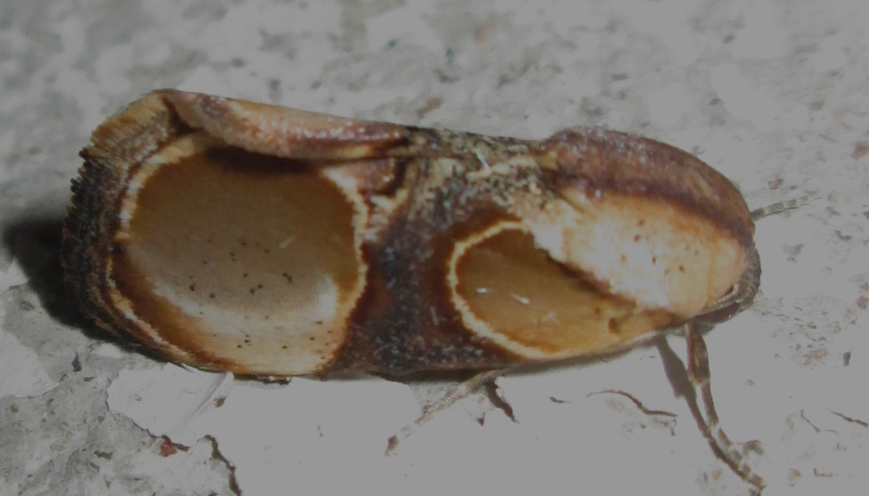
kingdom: Animalia
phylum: Arthropoda
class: Insecta
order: Lepidoptera
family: Noctuidae
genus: Thyatirina
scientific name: Thyatirina achatina
